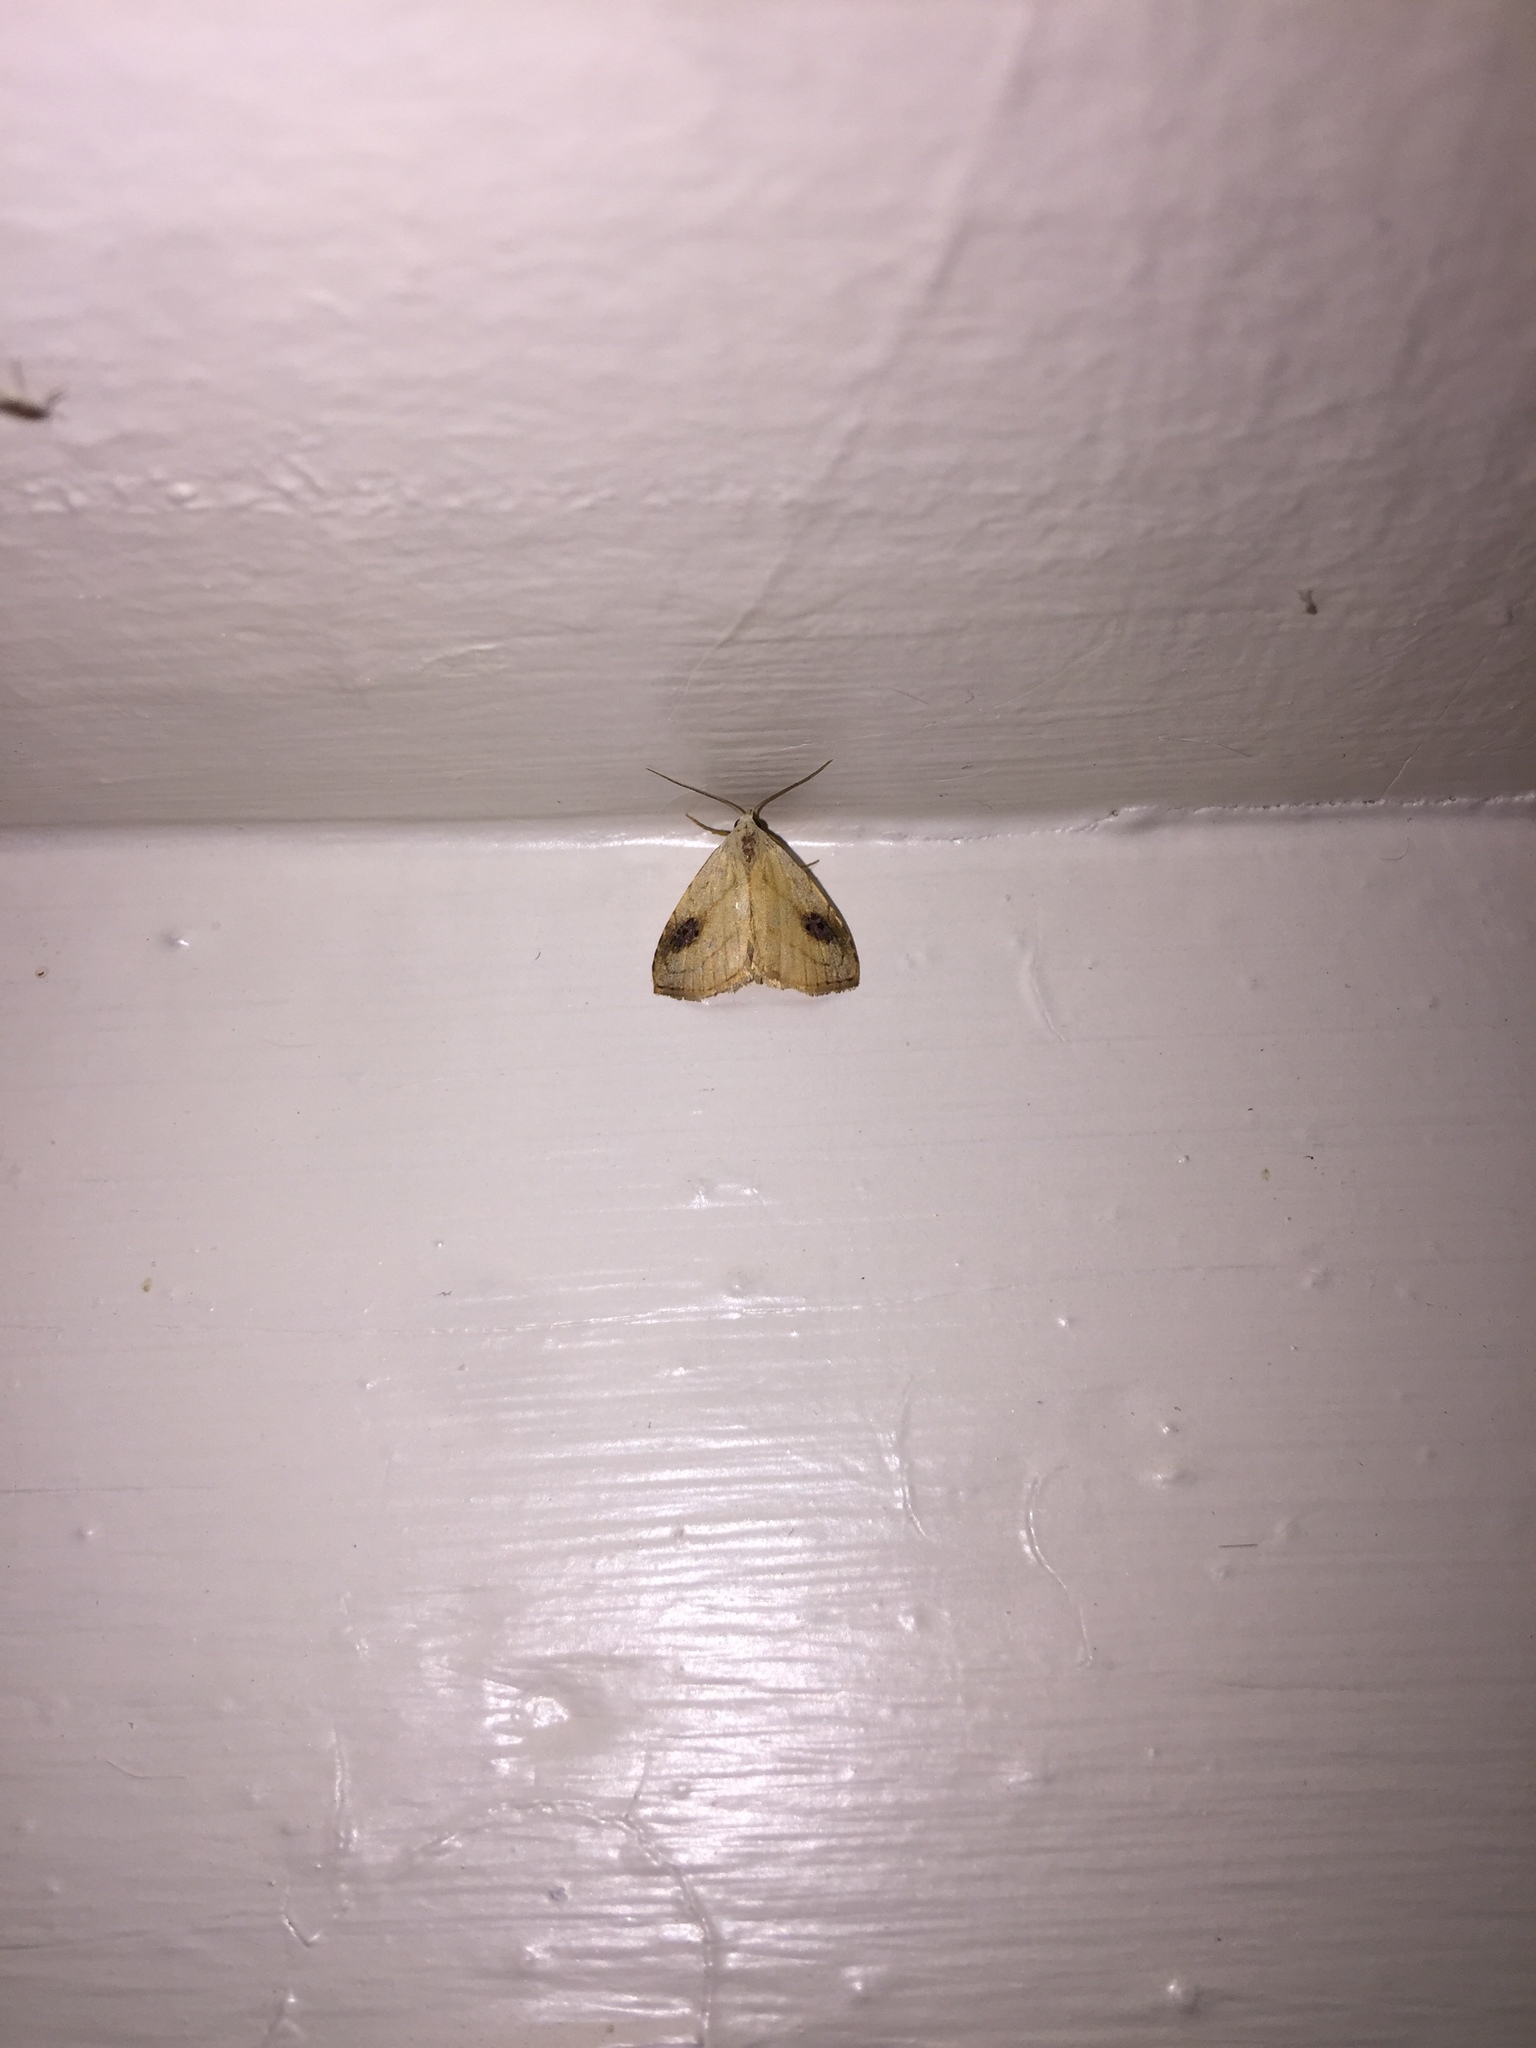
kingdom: Animalia
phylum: Arthropoda
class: Insecta
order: Lepidoptera
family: Erebidae
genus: Rivula
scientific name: Rivula propinqualis
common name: Spotted grass moth
